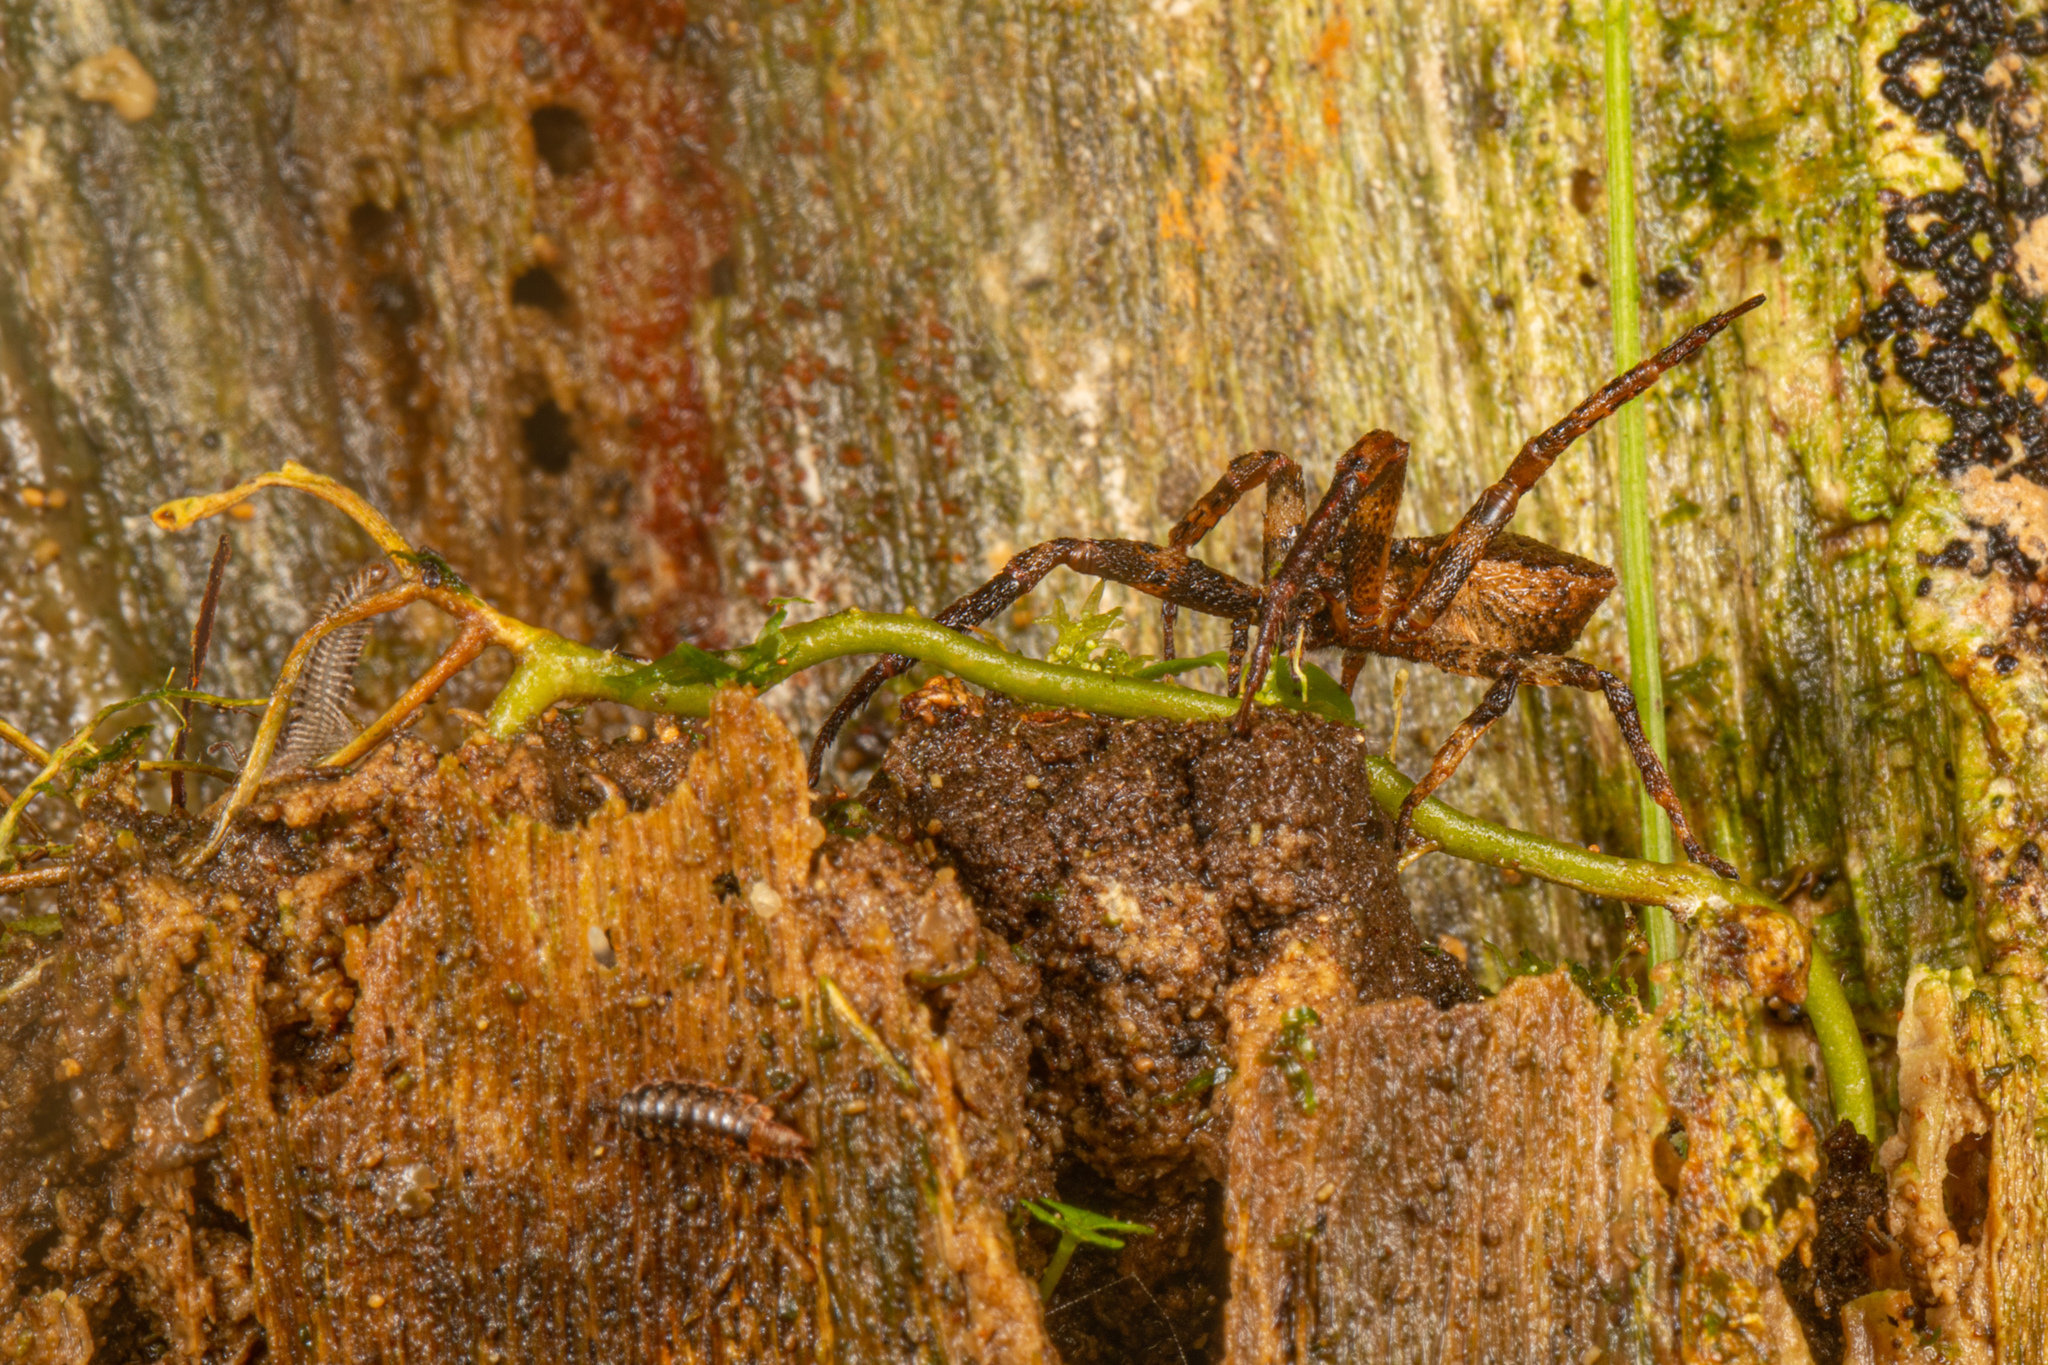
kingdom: Animalia
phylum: Arthropoda
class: Arachnida
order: Araneae
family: Thomisidae
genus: Sidymella
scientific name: Sidymella angularis
